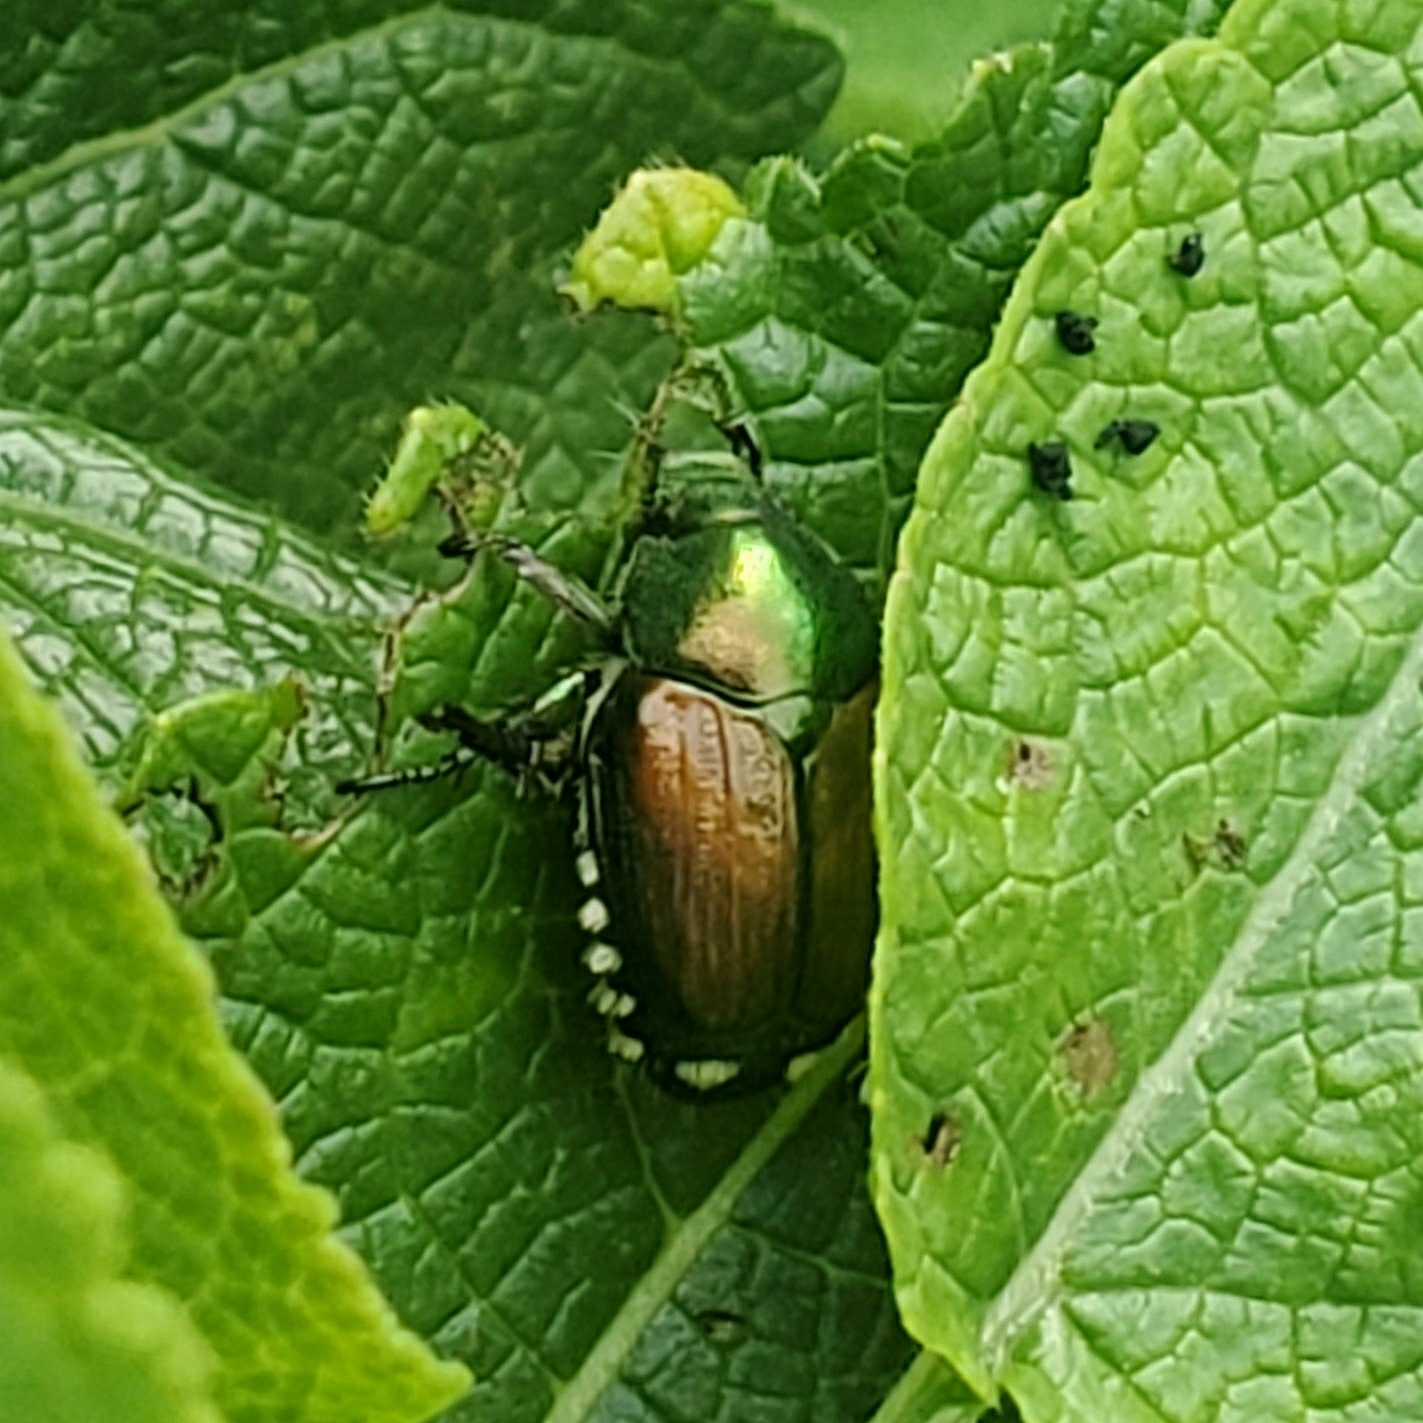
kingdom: Animalia
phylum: Arthropoda
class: Insecta
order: Coleoptera
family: Scarabaeidae
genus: Popillia
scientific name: Popillia japonica
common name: Japanese beetle
